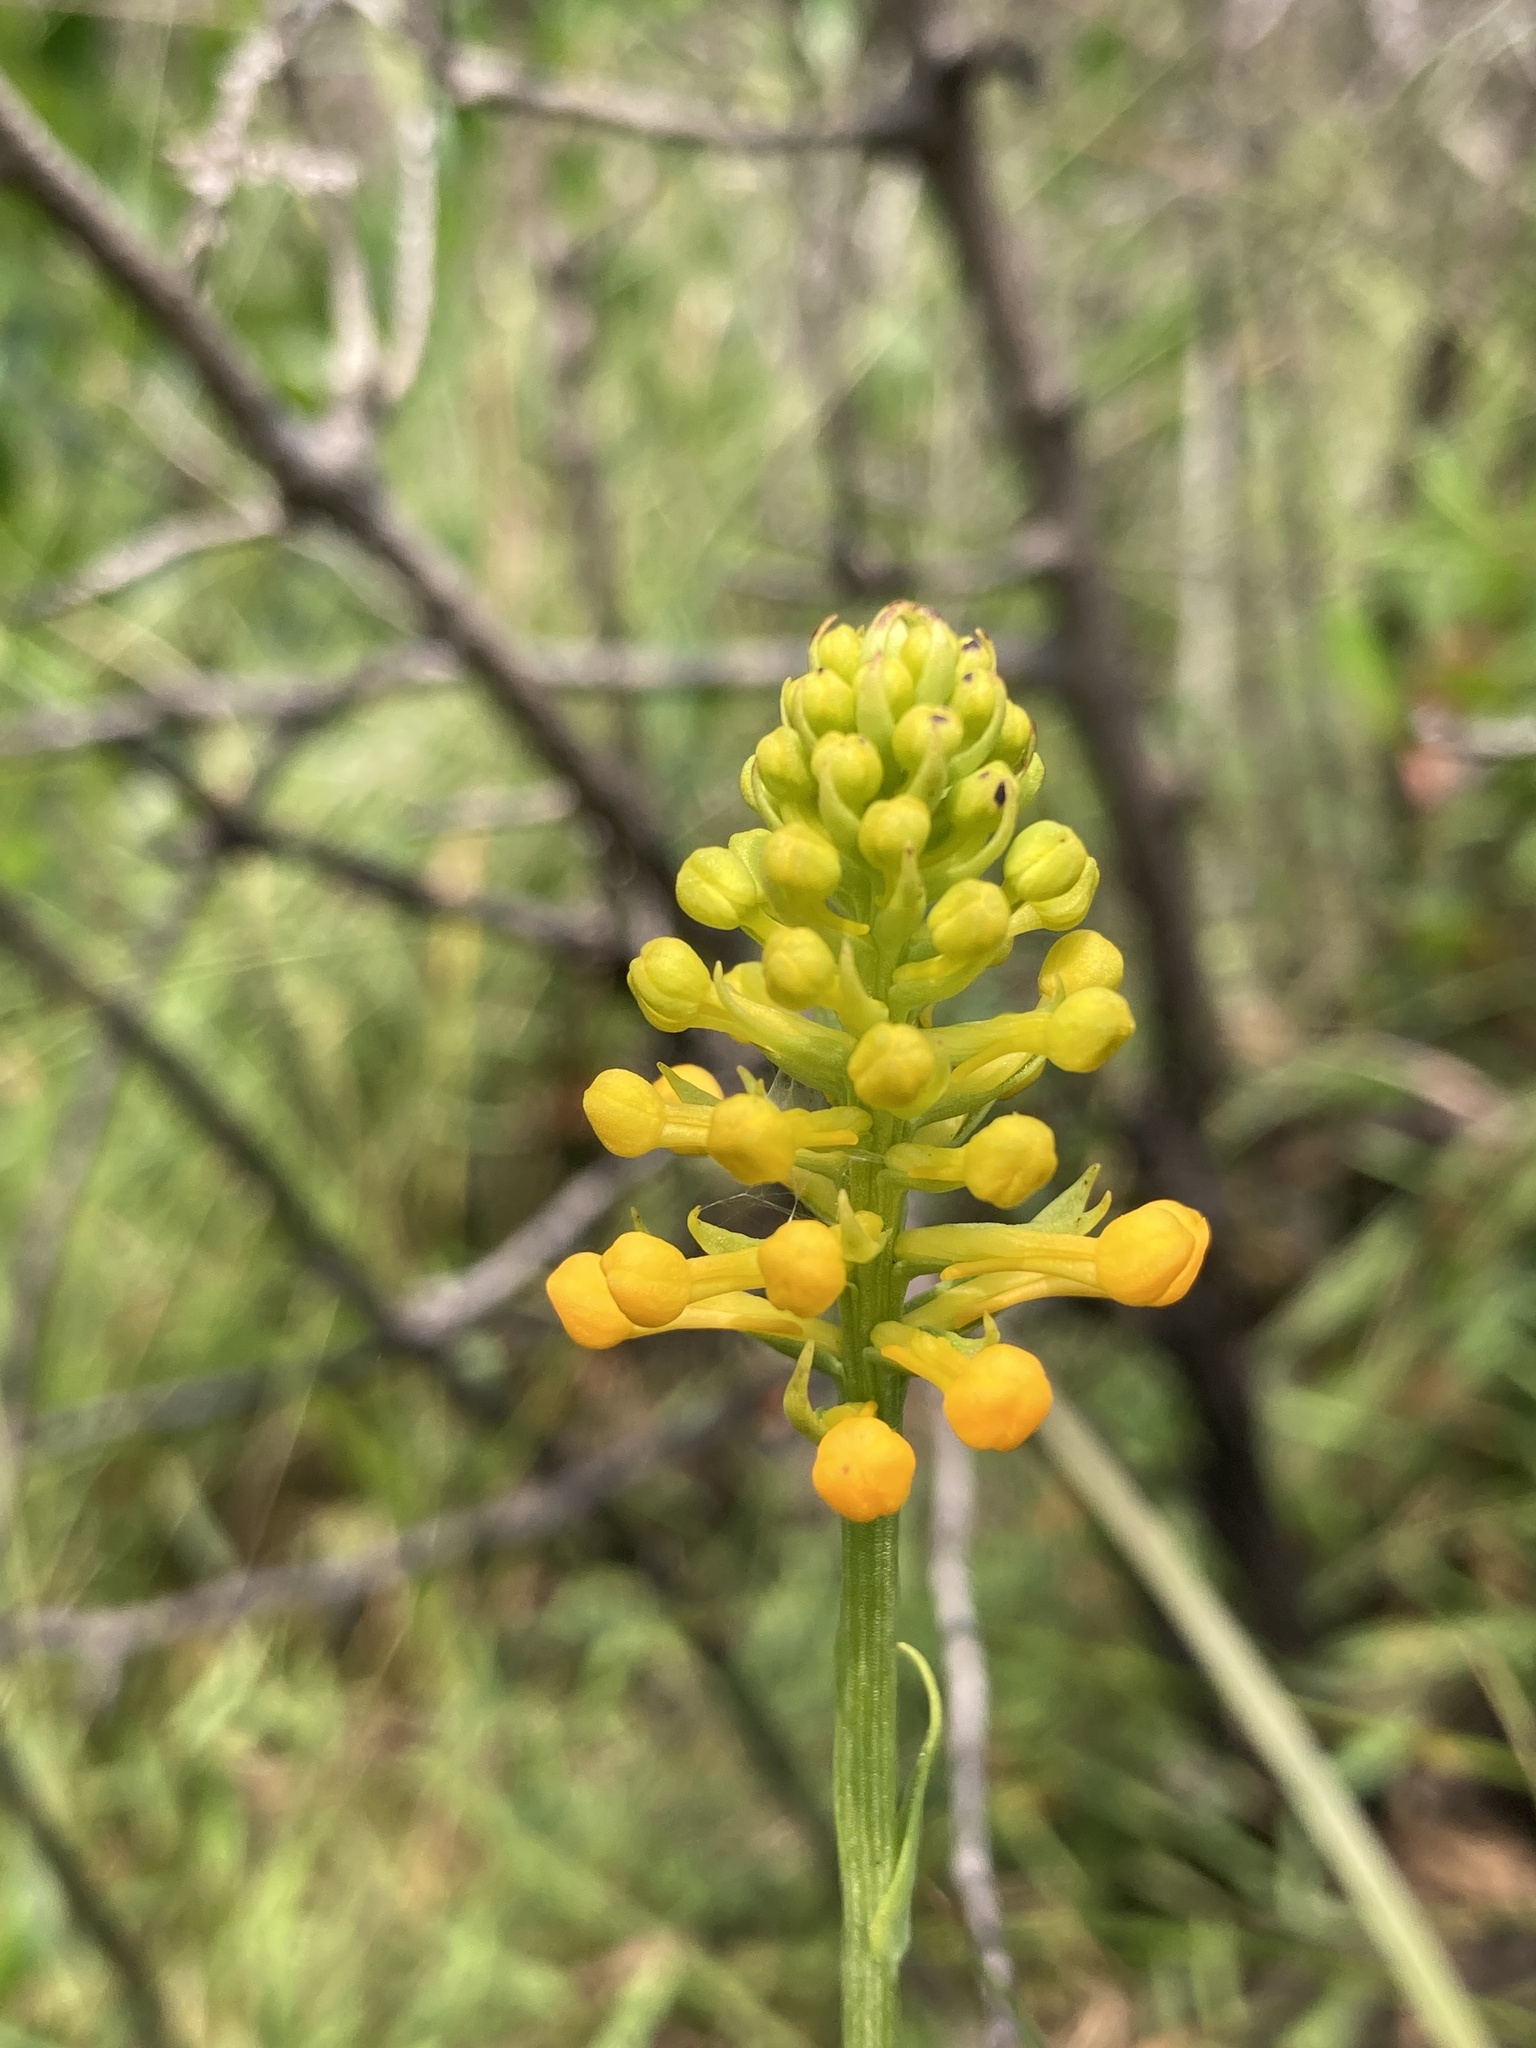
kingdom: Plantae
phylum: Tracheophyta
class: Liliopsida
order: Asparagales
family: Orchidaceae
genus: Platanthera
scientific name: Platanthera integra
